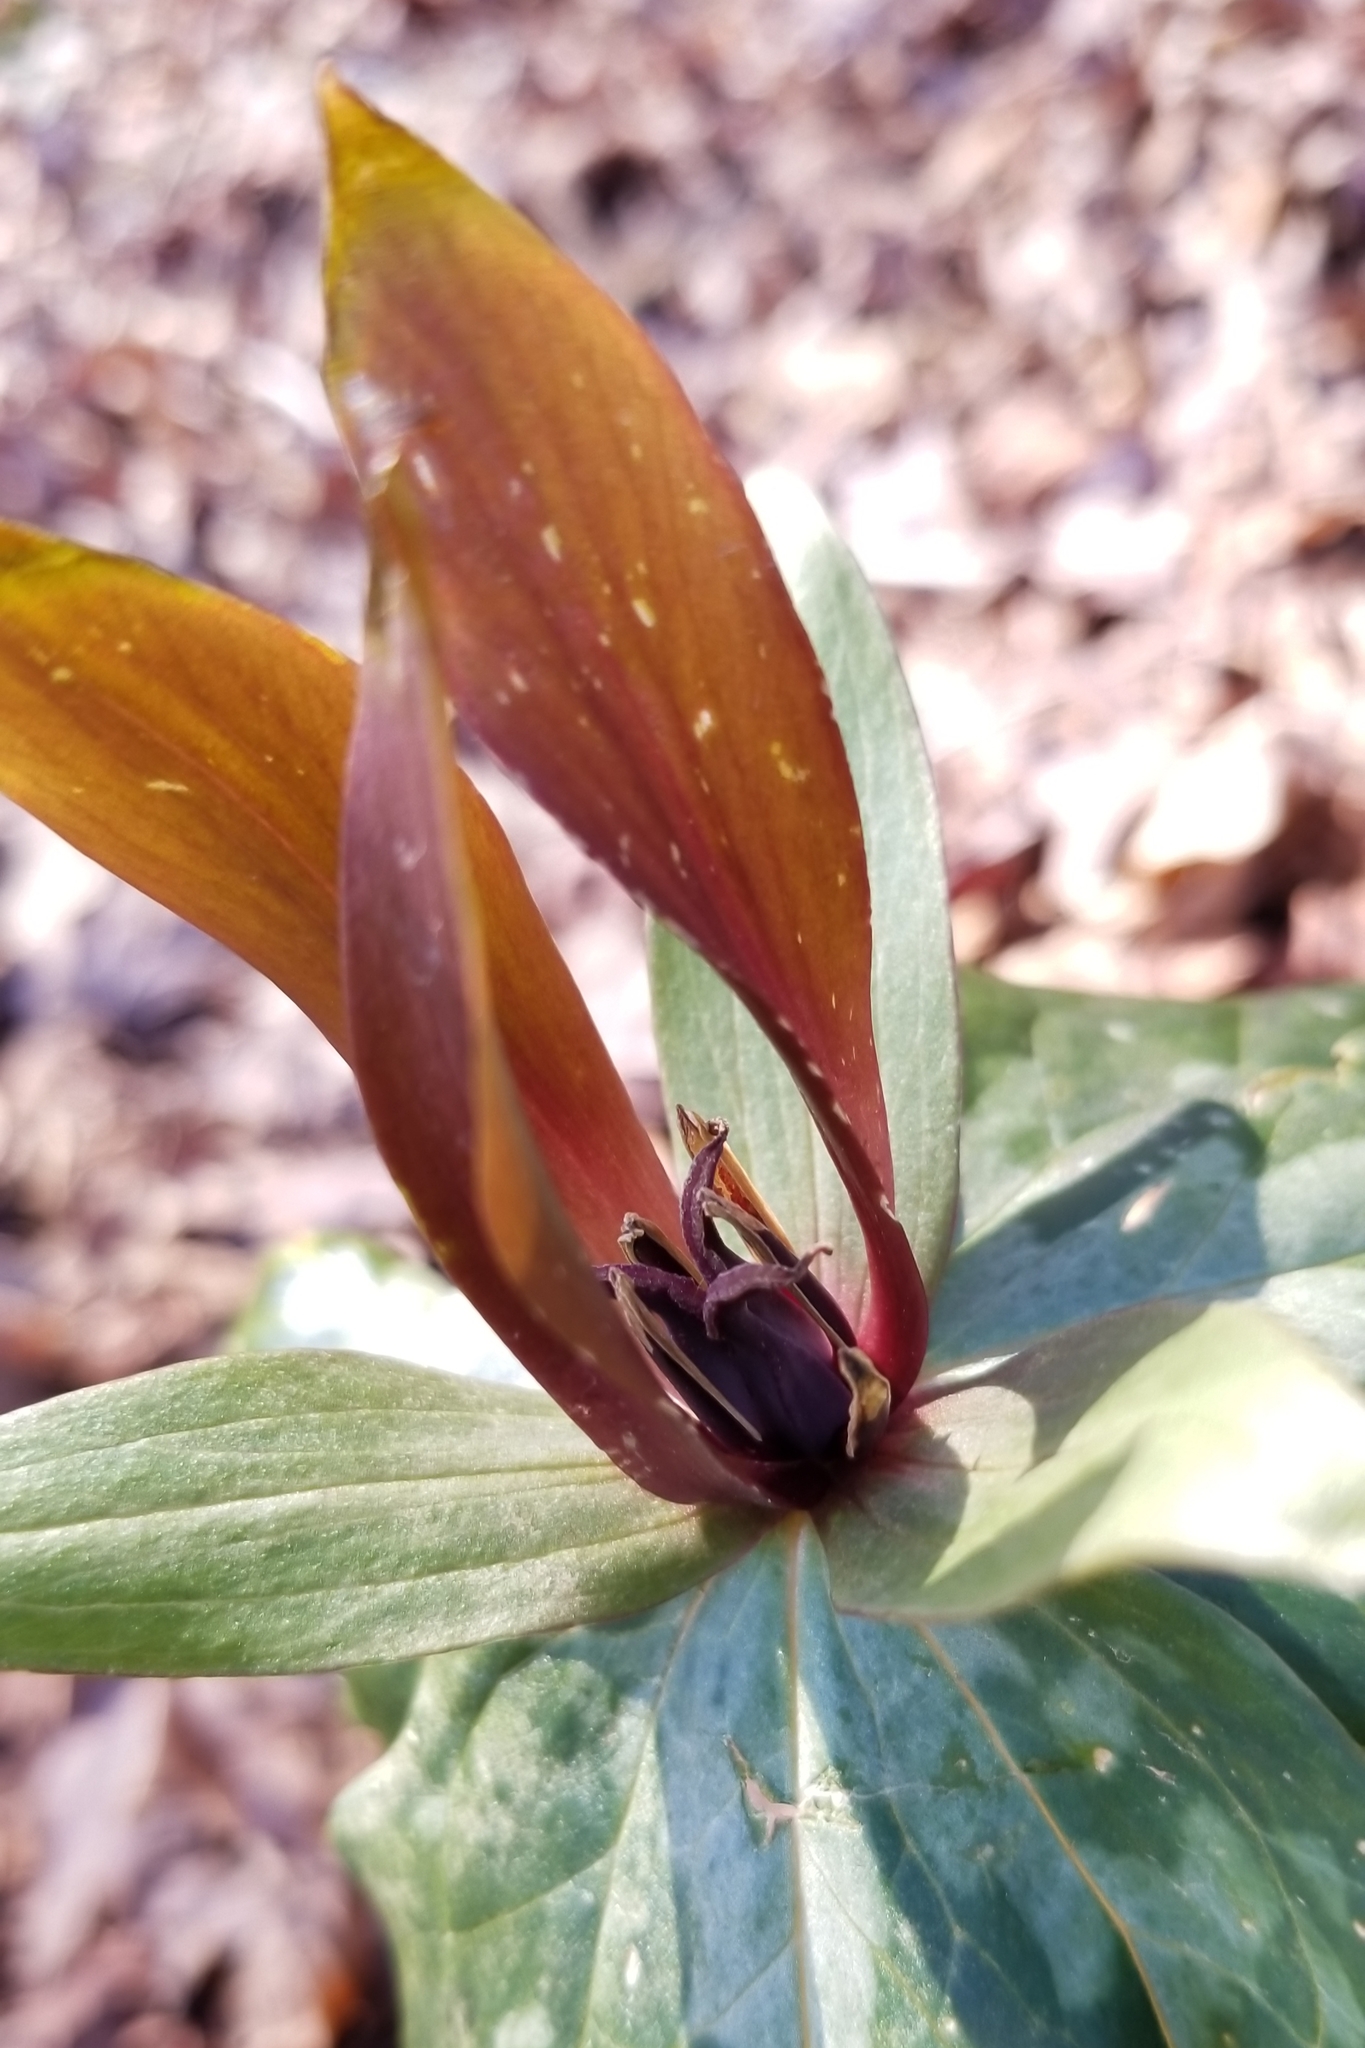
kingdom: Plantae
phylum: Tracheophyta
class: Liliopsida
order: Liliales
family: Melanthiaceae
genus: Trillium
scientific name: Trillium cuneatum
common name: Cuneate trillium
